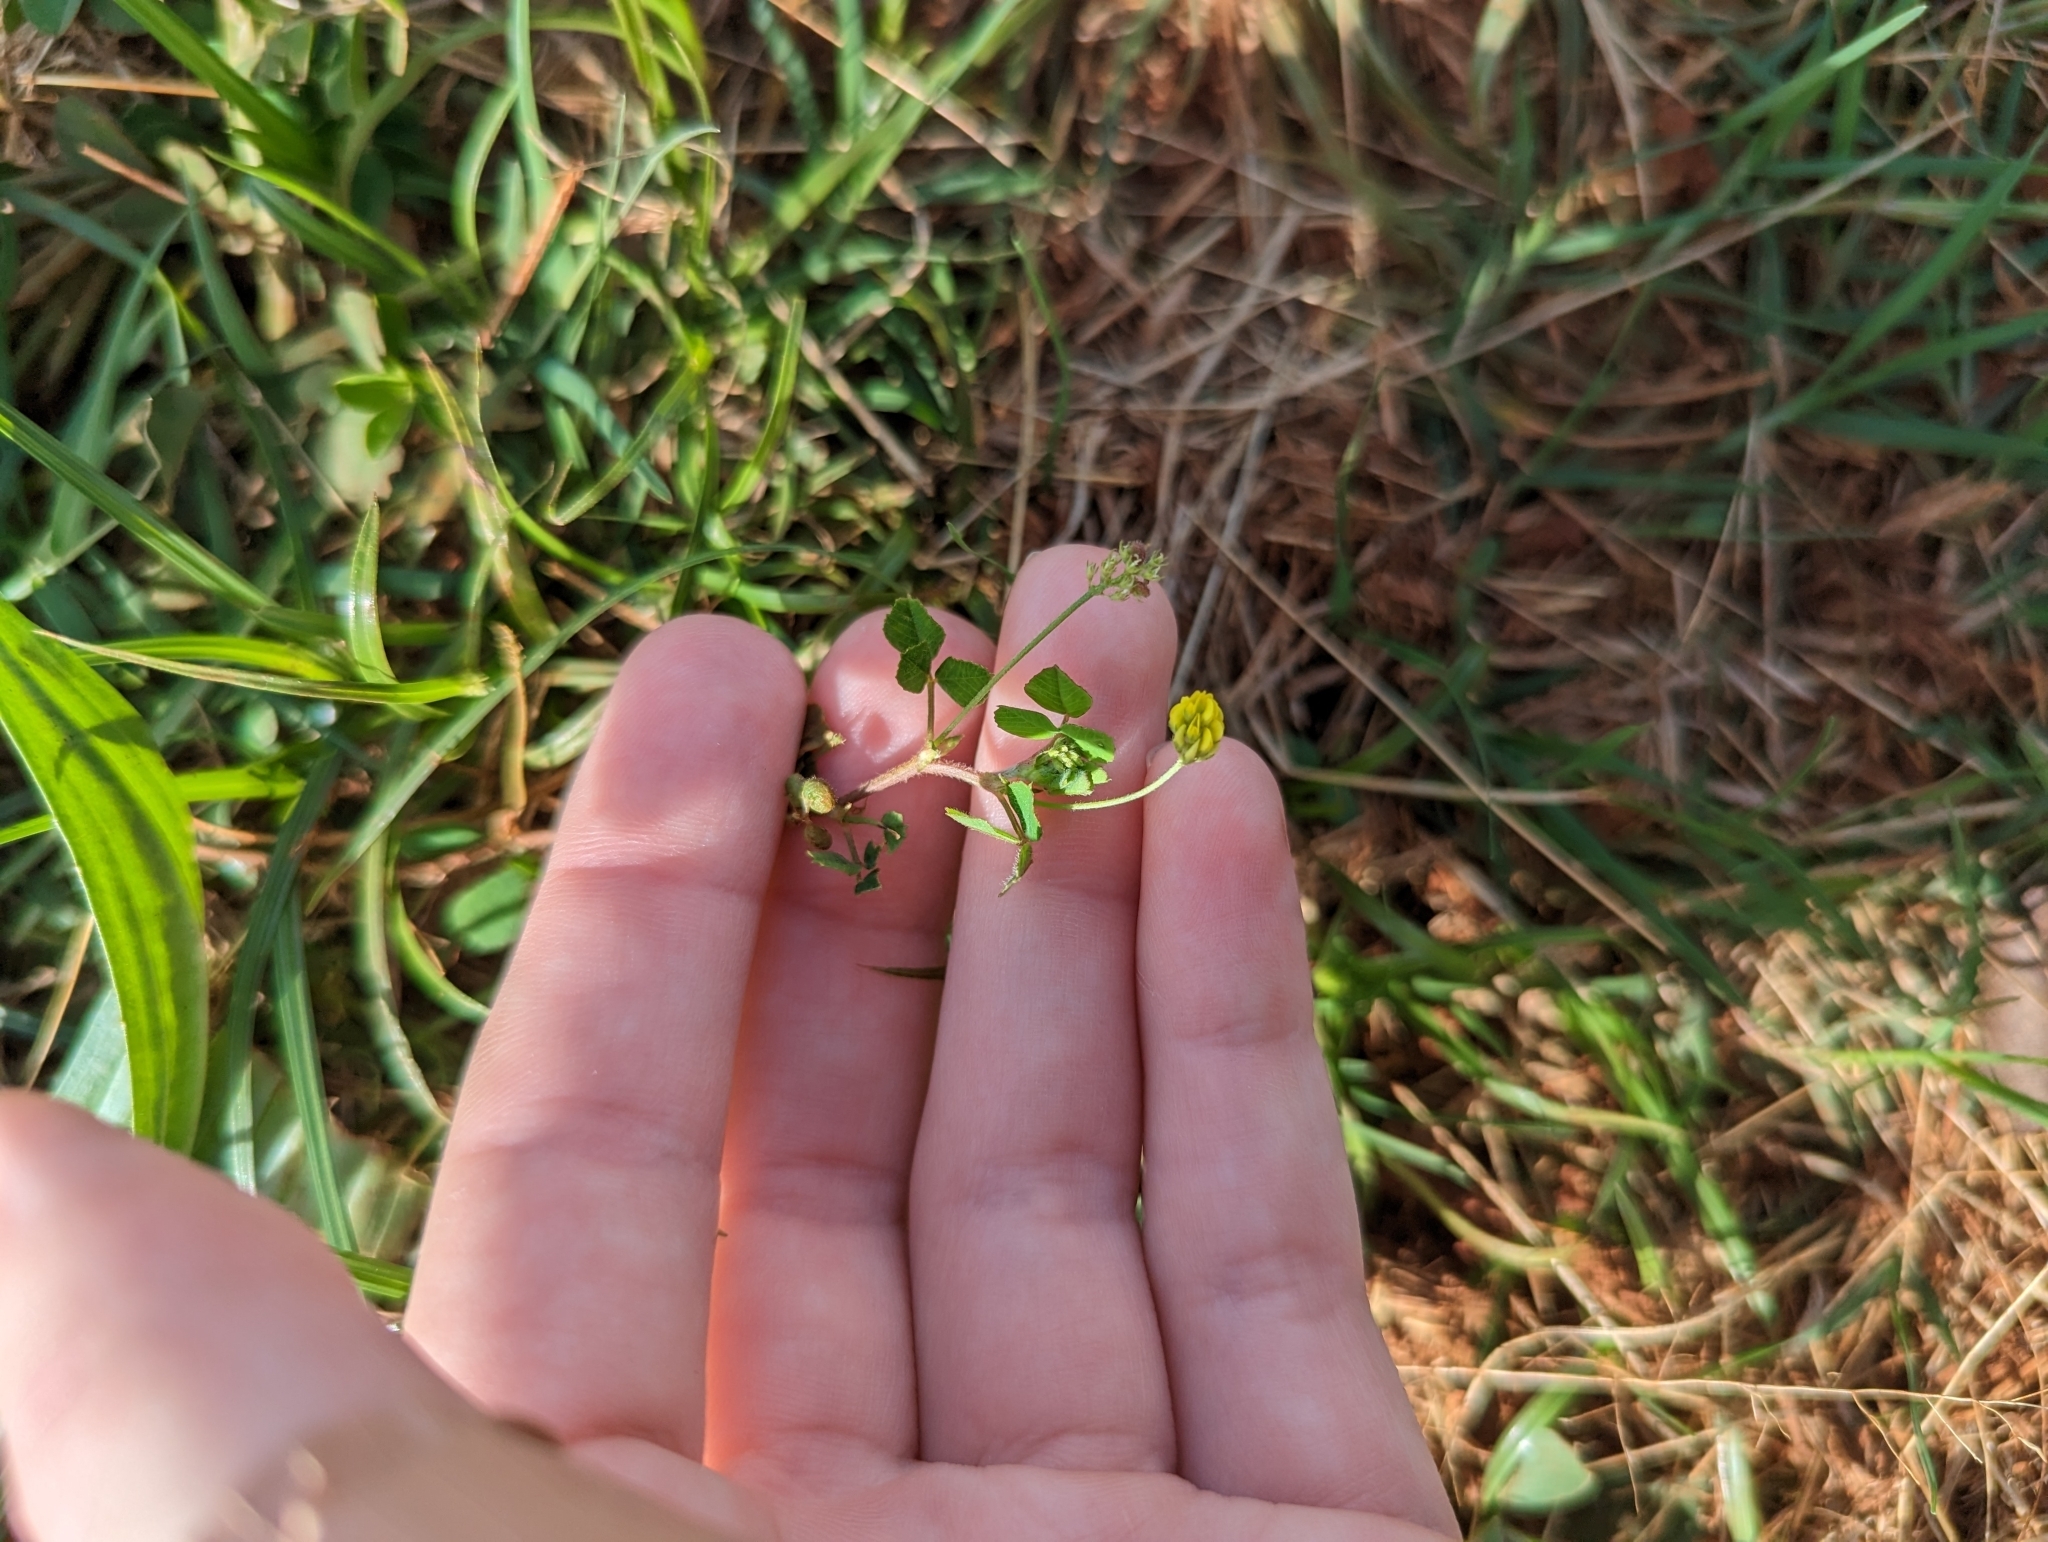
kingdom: Plantae
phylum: Tracheophyta
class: Magnoliopsida
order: Fabales
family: Fabaceae
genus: Medicago
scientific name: Medicago lupulina
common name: Black medick
